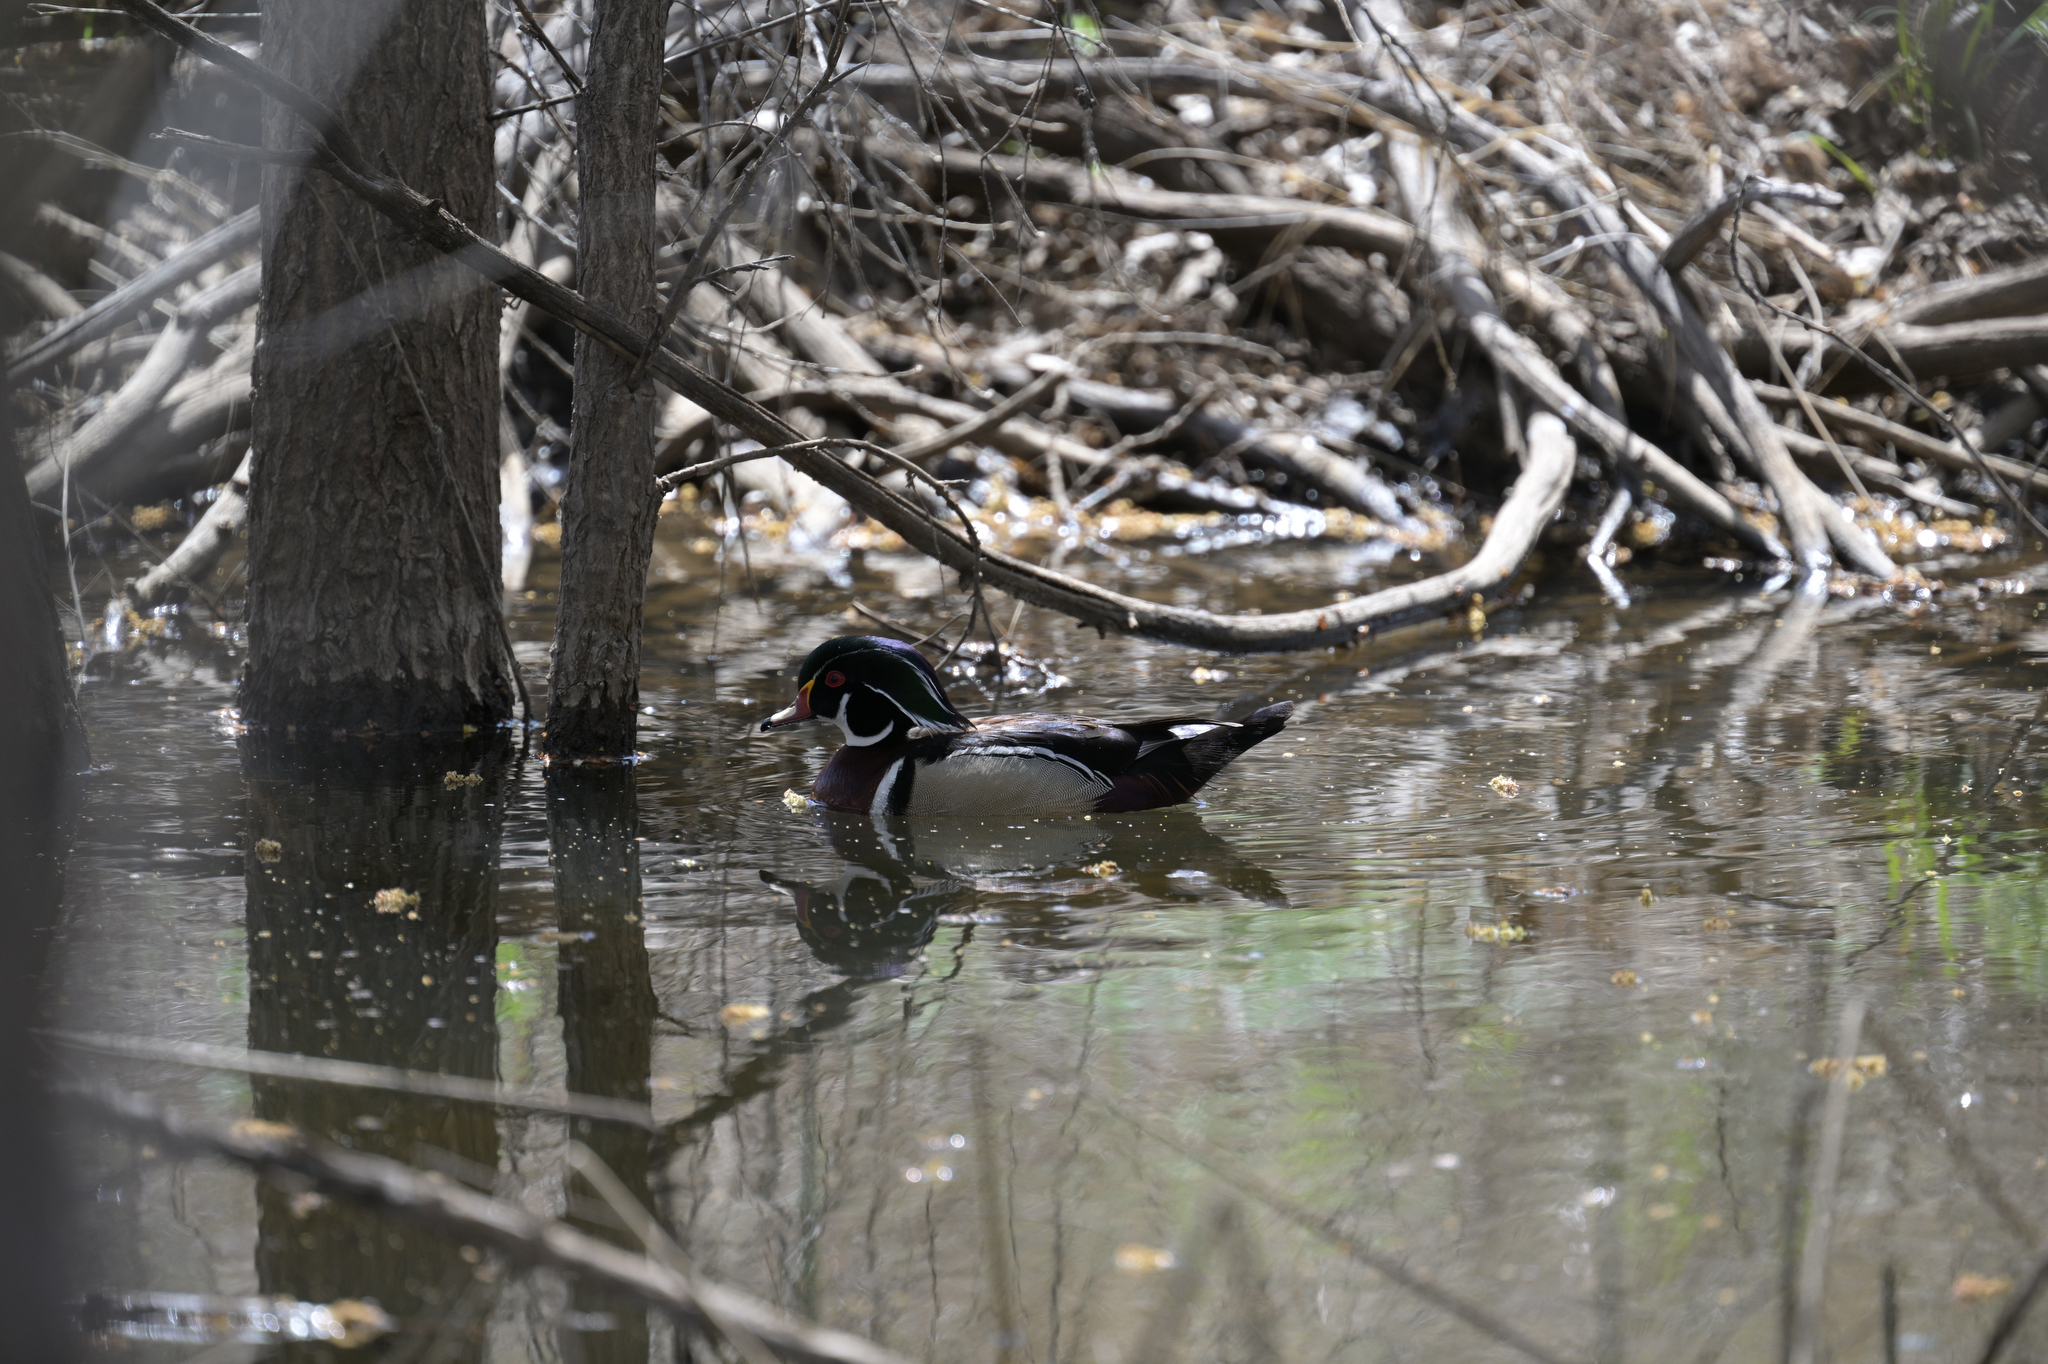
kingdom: Animalia
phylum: Chordata
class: Aves
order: Anseriformes
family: Anatidae
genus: Aix
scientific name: Aix sponsa
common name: Wood duck
